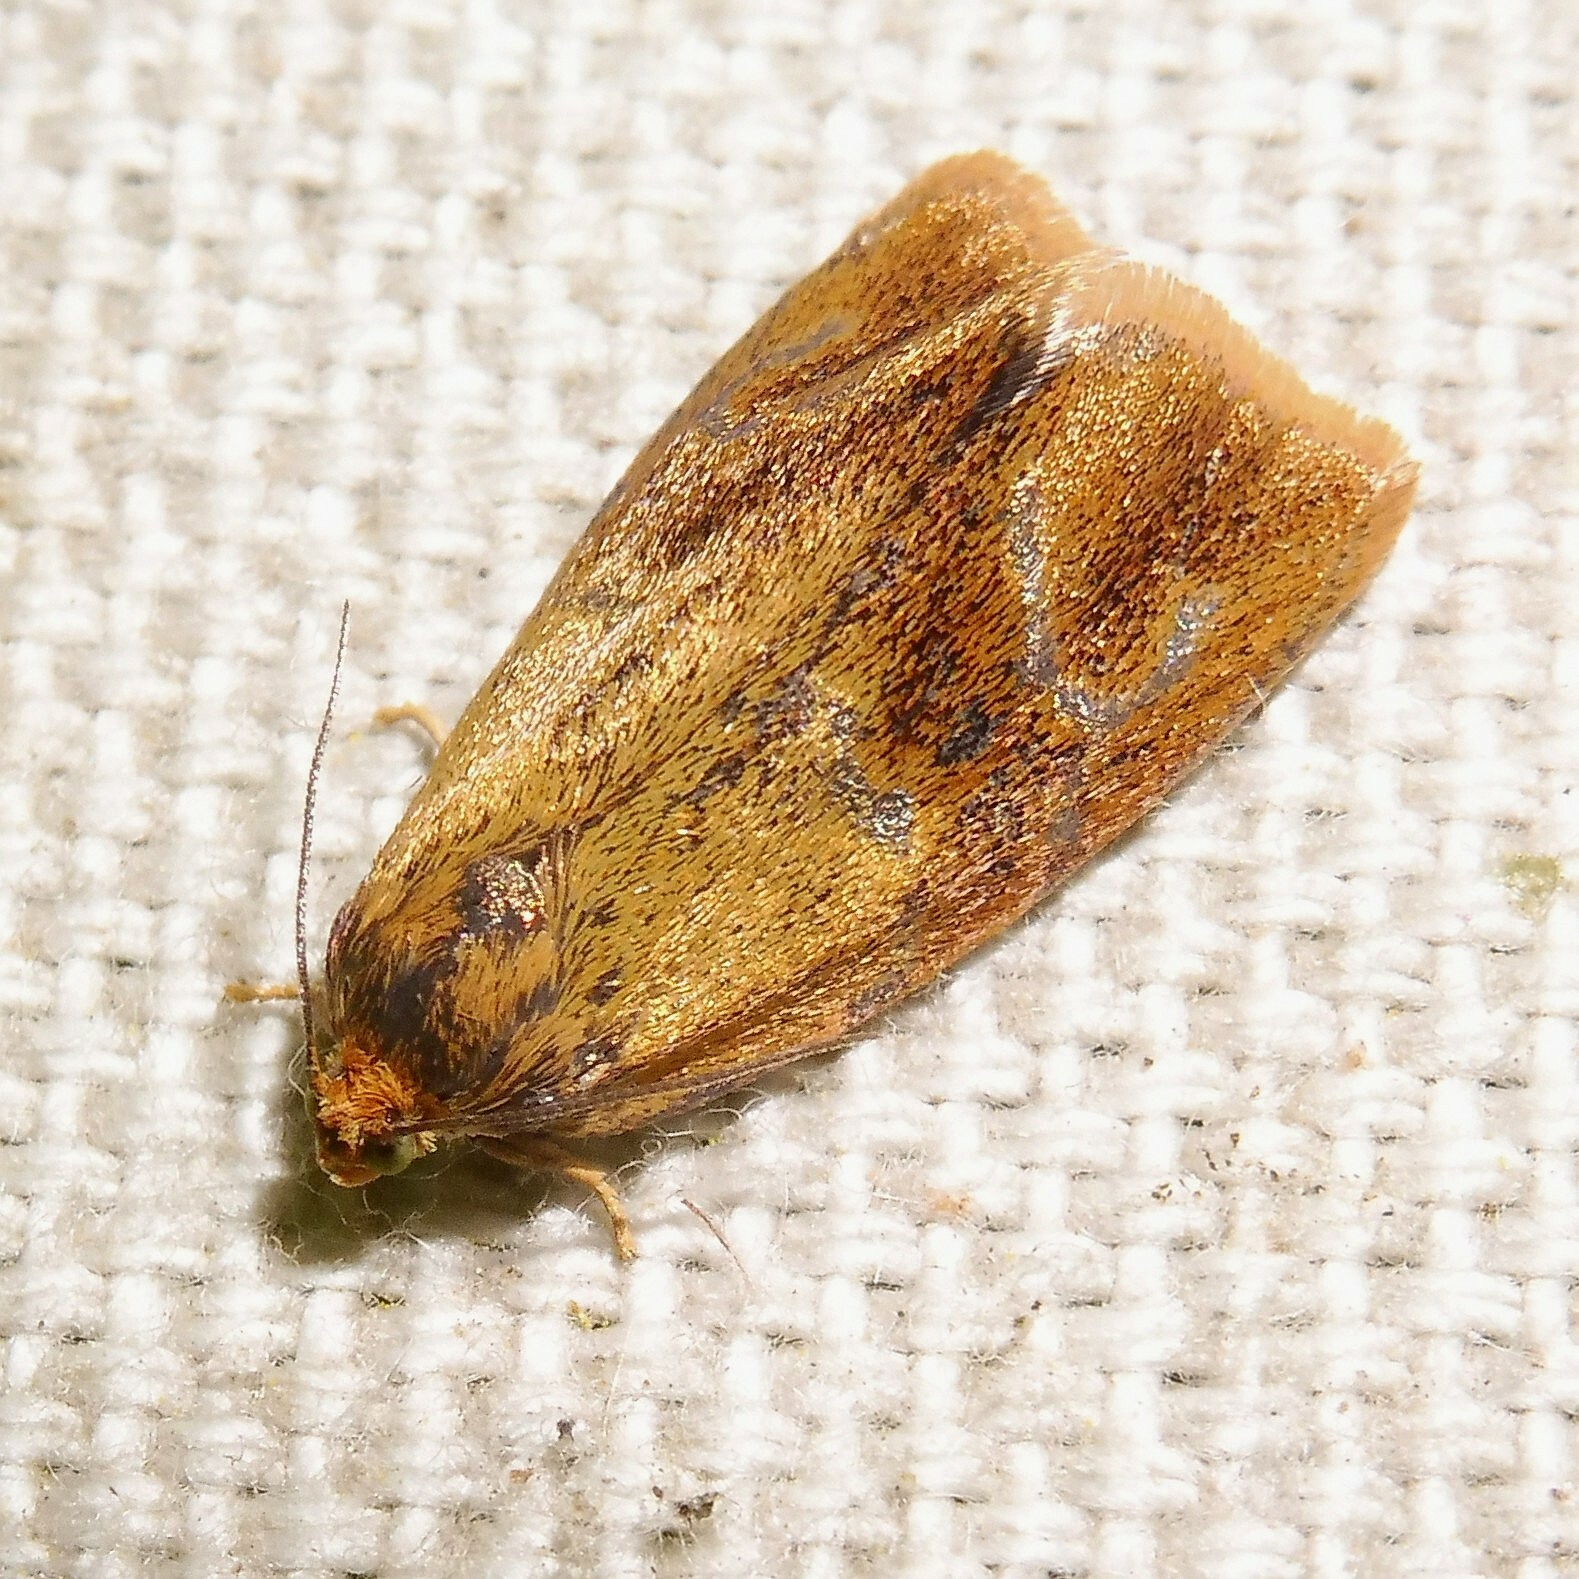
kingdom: Animalia
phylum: Arthropoda
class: Insecta
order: Lepidoptera
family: Tortricidae
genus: Ptycholoma
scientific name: Ptycholoma lecheana
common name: Leches twist moth
